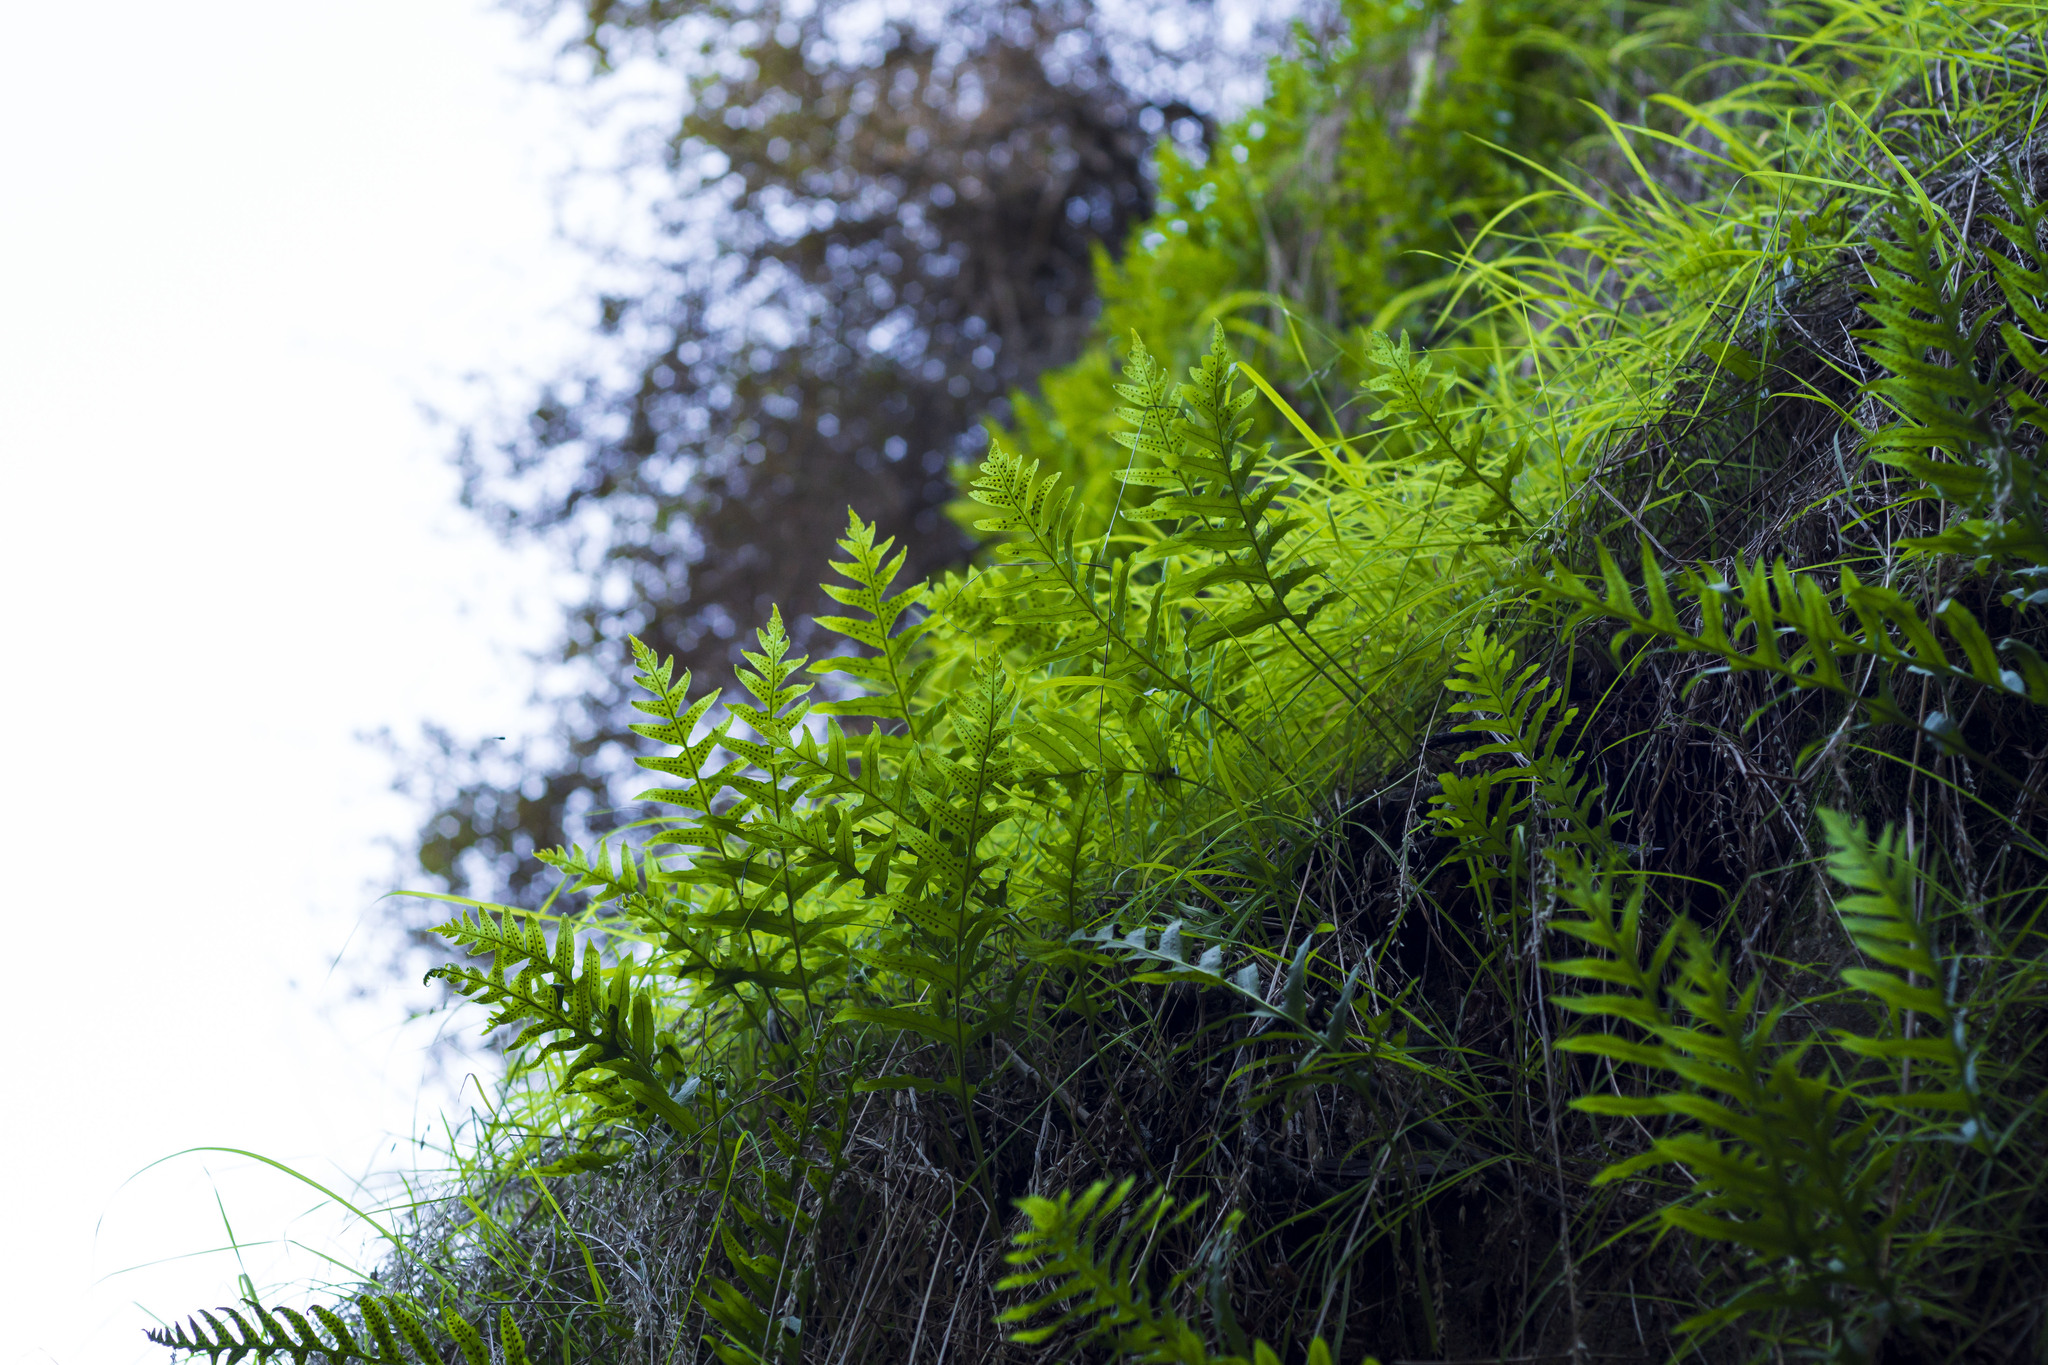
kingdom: Plantae
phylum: Tracheophyta
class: Polypodiopsida
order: Polypodiales
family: Polypodiaceae
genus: Polypodium
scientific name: Polypodium californicum
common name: California polypody
